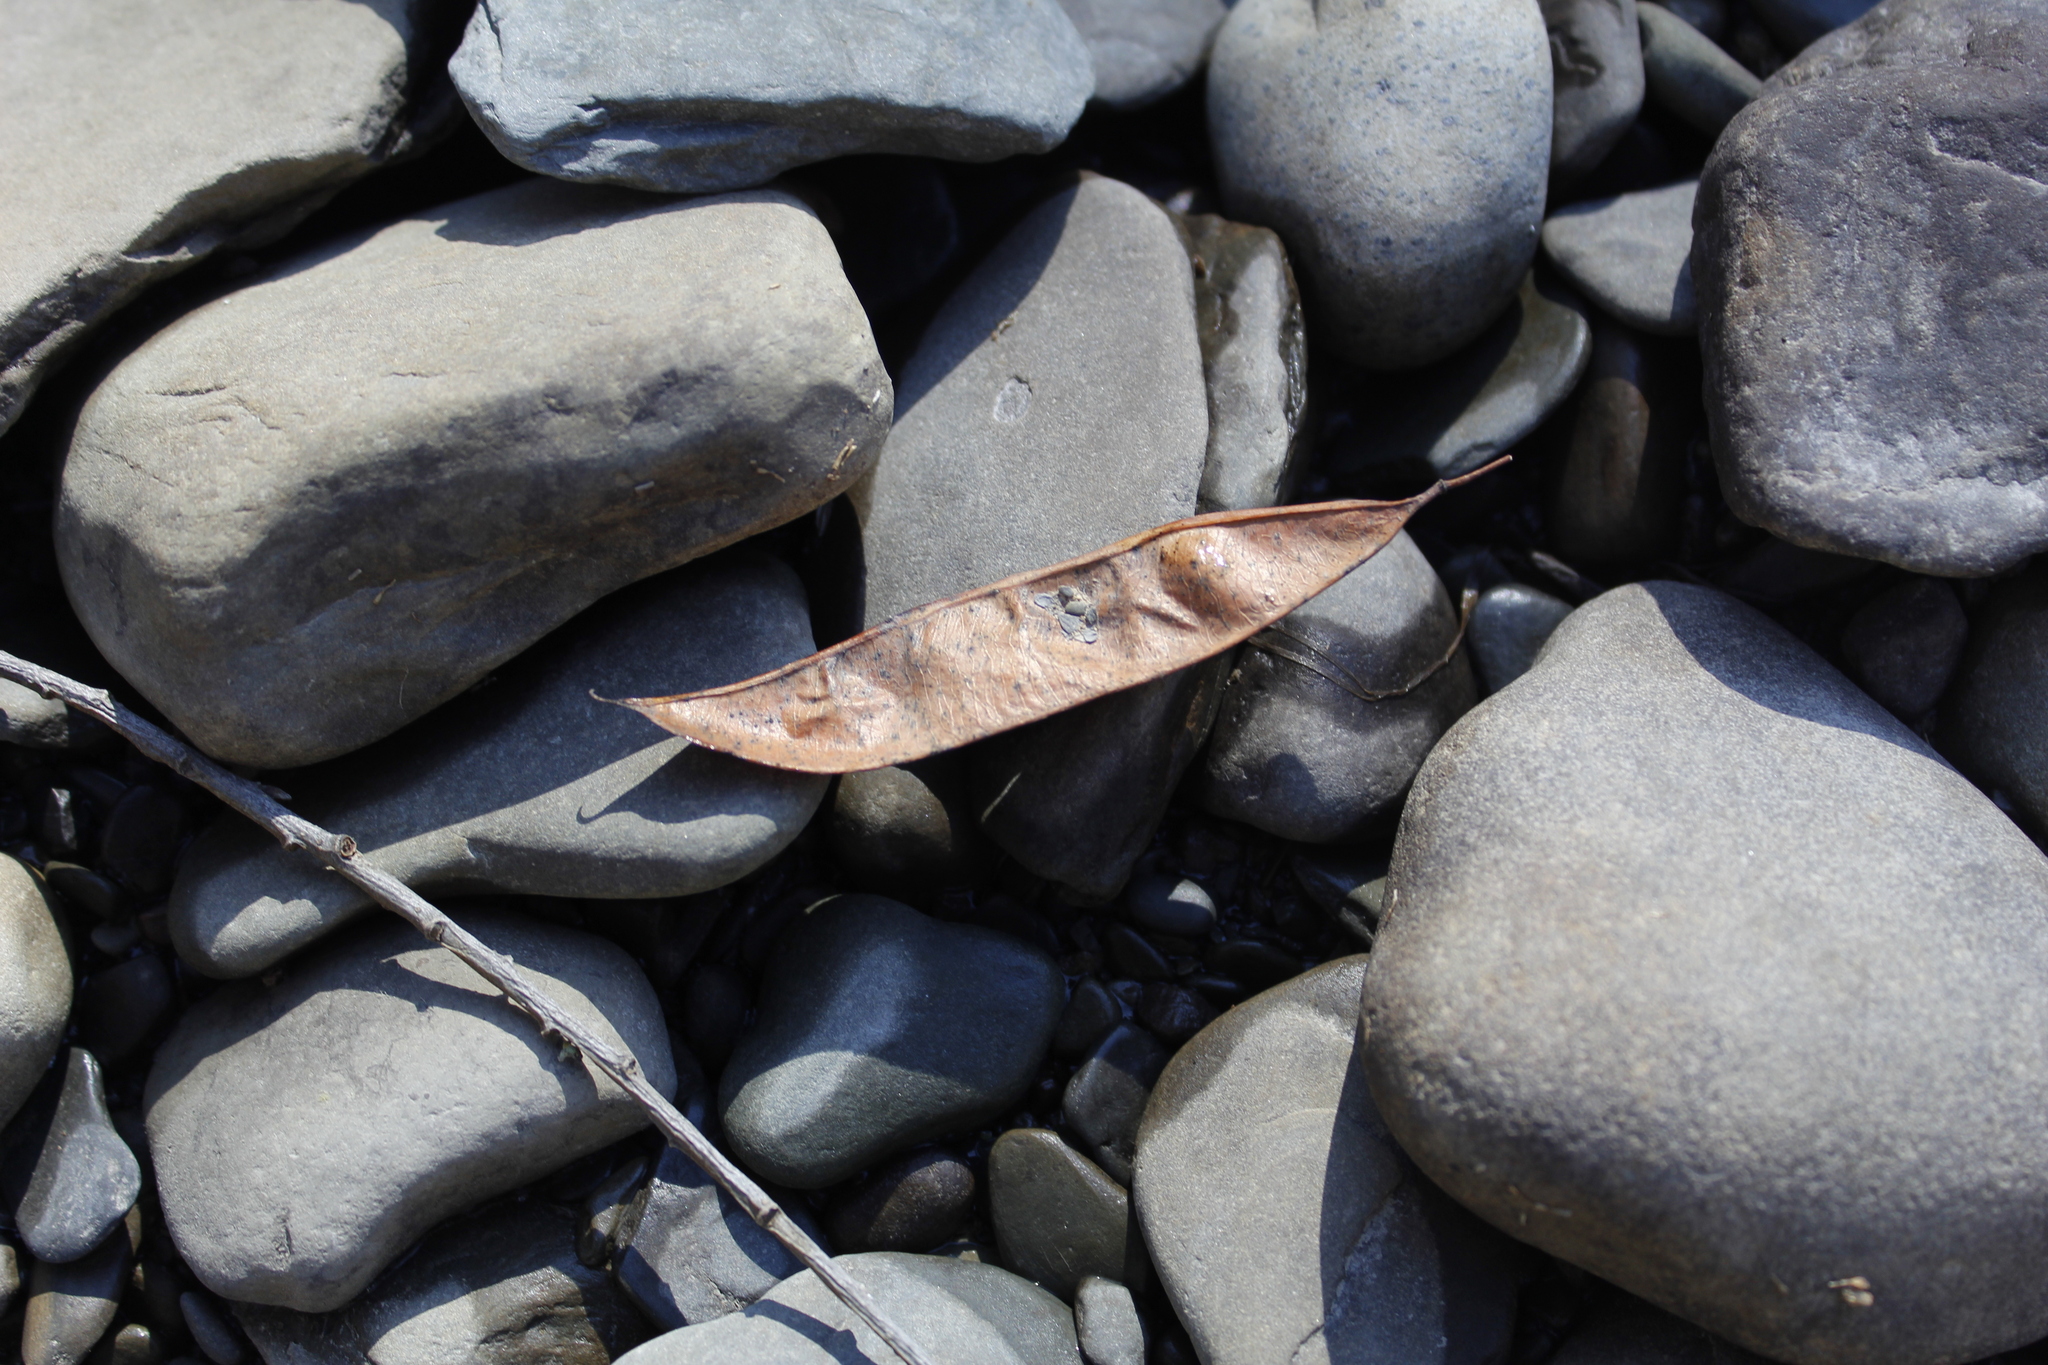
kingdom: Plantae
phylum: Tracheophyta
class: Magnoliopsida
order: Fabales
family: Fabaceae
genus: Robinia
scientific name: Robinia pseudoacacia
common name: Black locust
